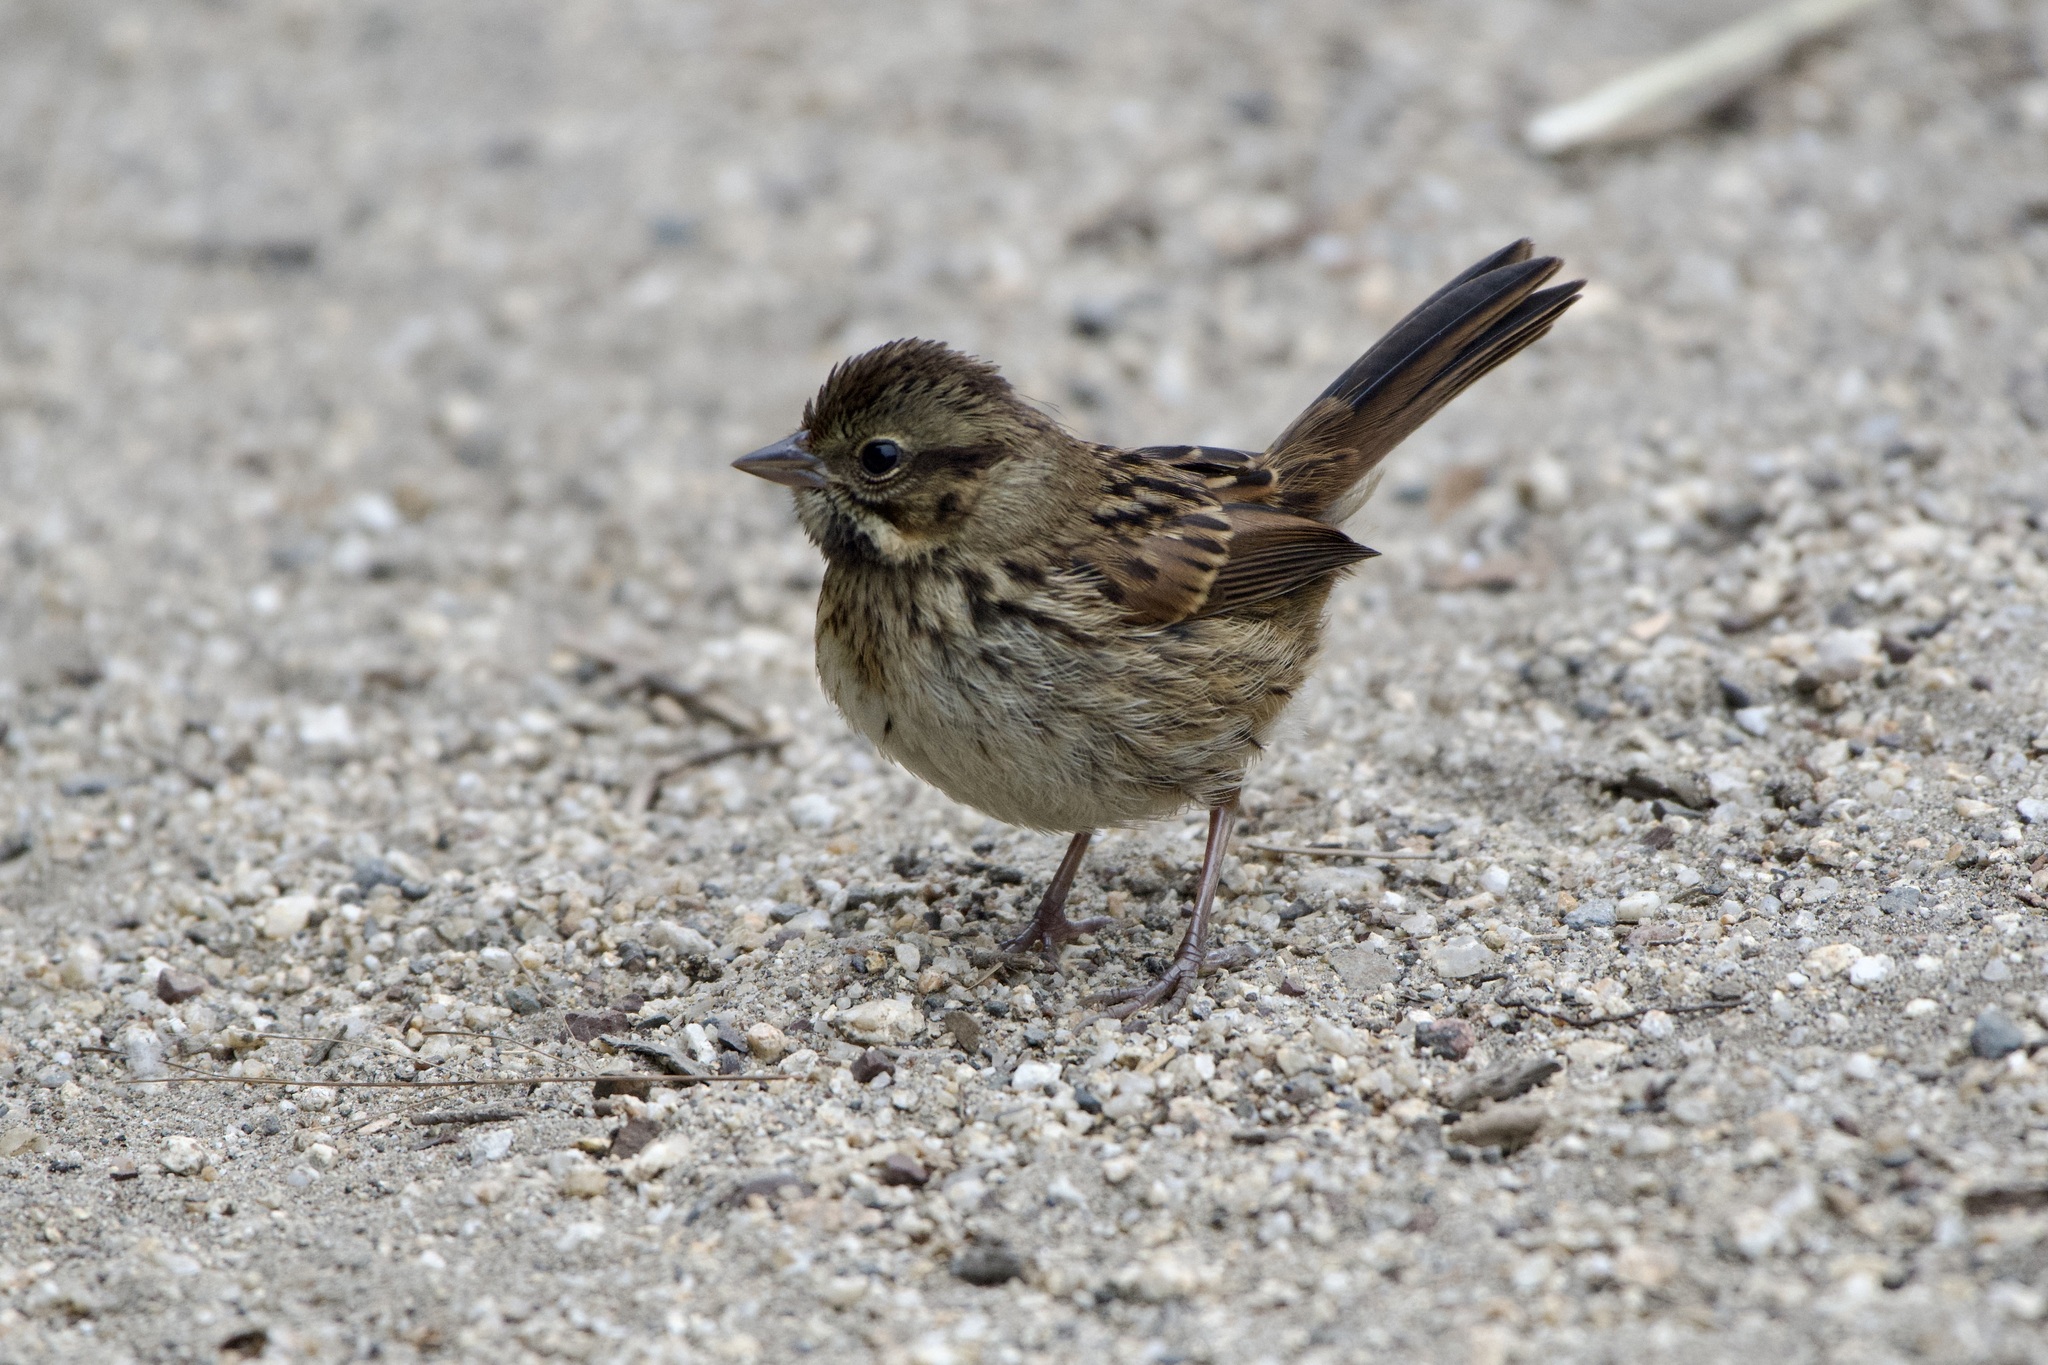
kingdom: Animalia
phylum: Chordata
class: Aves
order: Passeriformes
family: Passerellidae
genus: Melospiza
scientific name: Melospiza melodia
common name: Song sparrow
